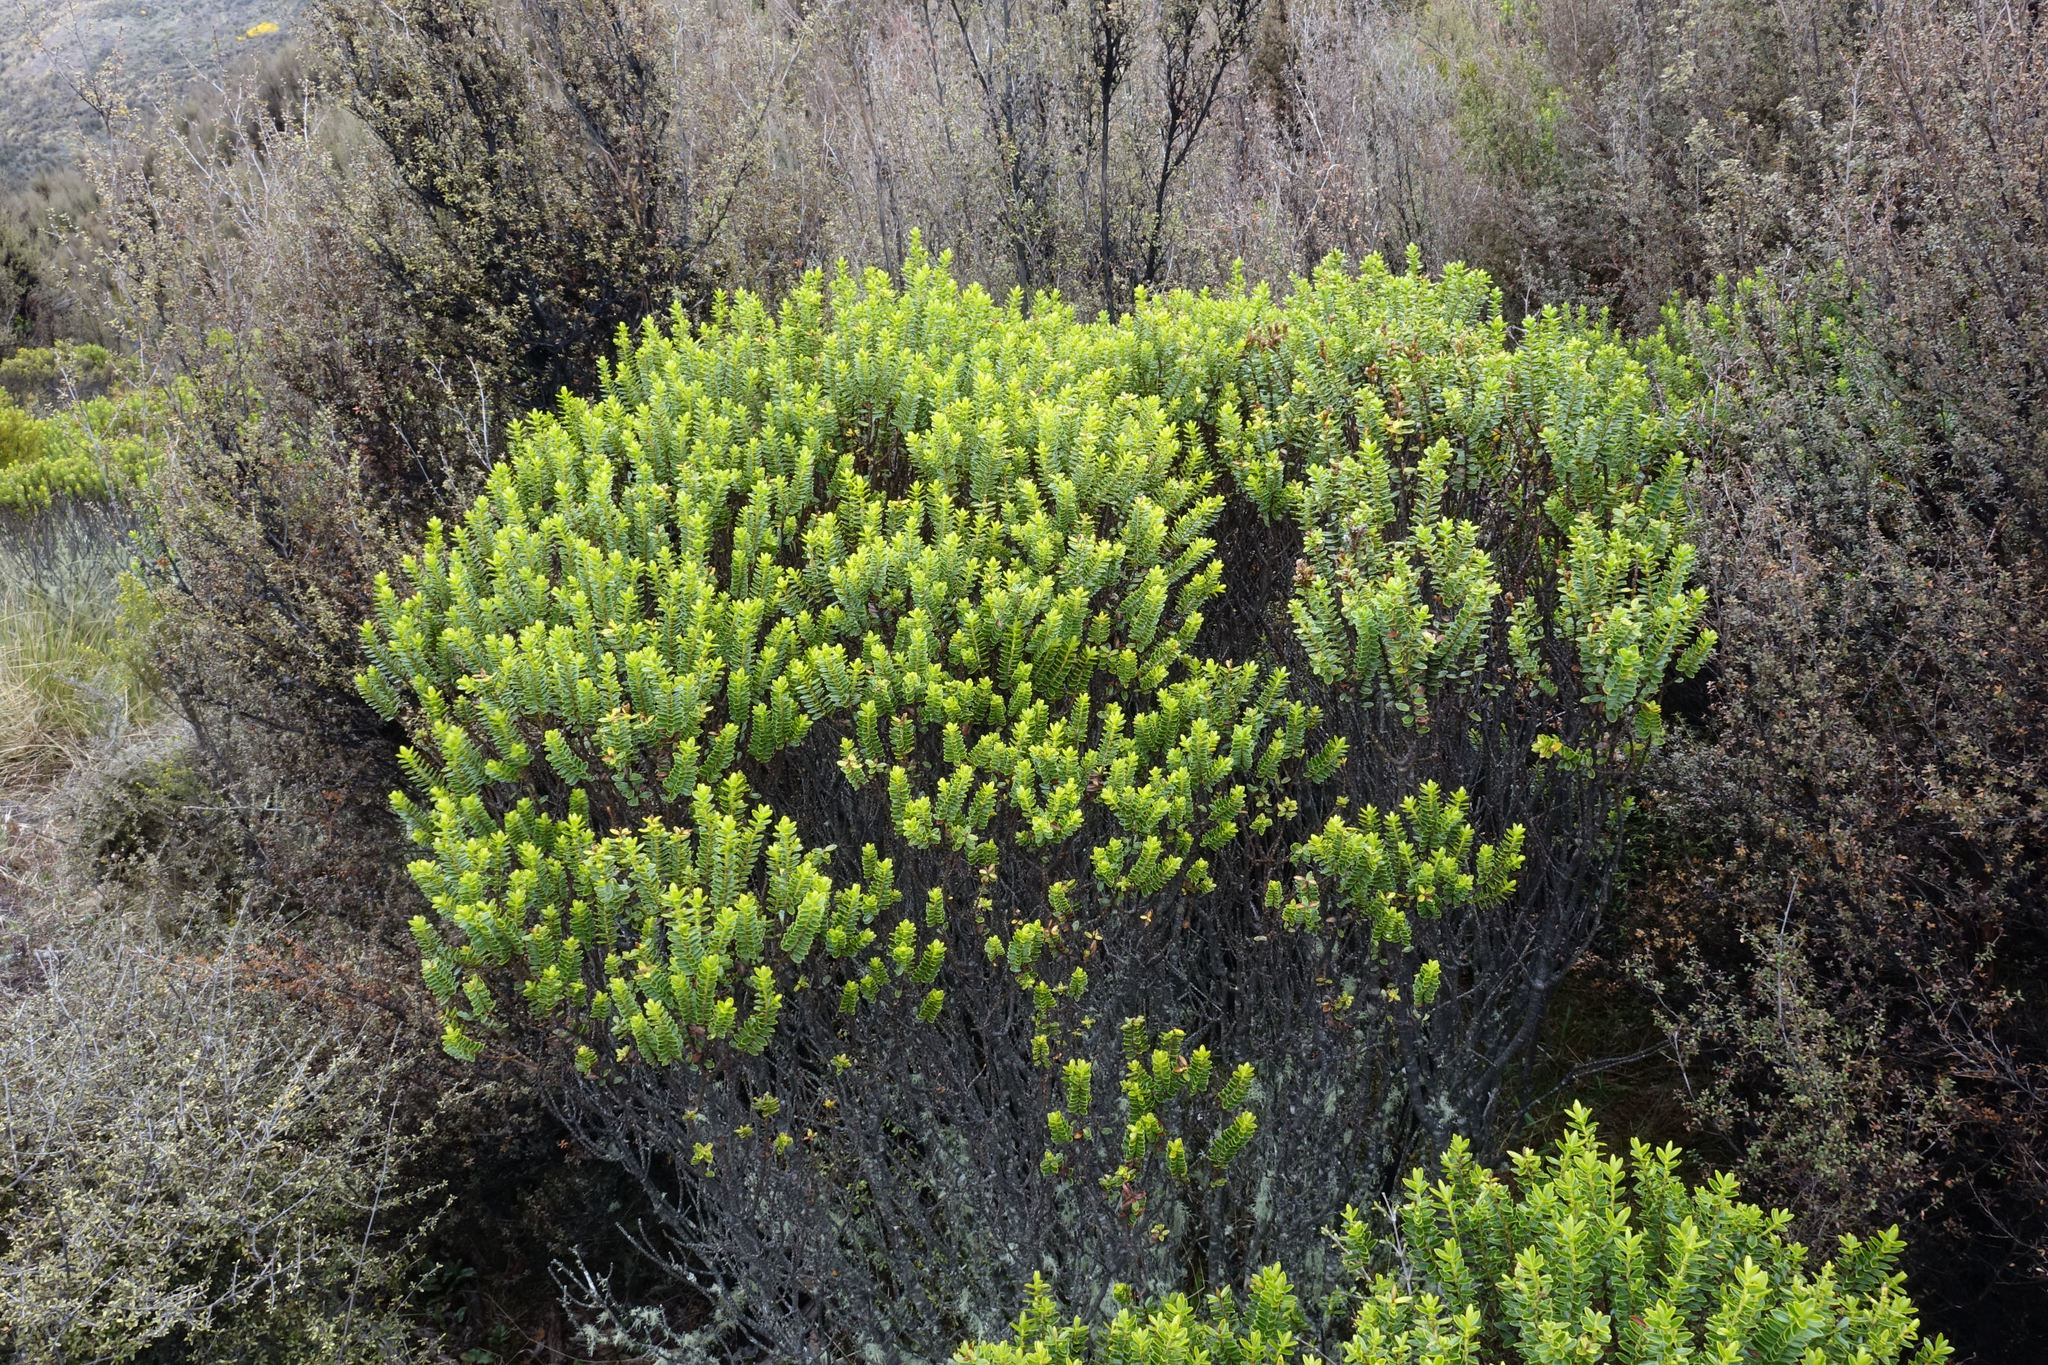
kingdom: Plantae
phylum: Tracheophyta
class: Magnoliopsida
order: Lamiales
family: Plantaginaceae
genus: Veronica
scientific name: Veronica odora
